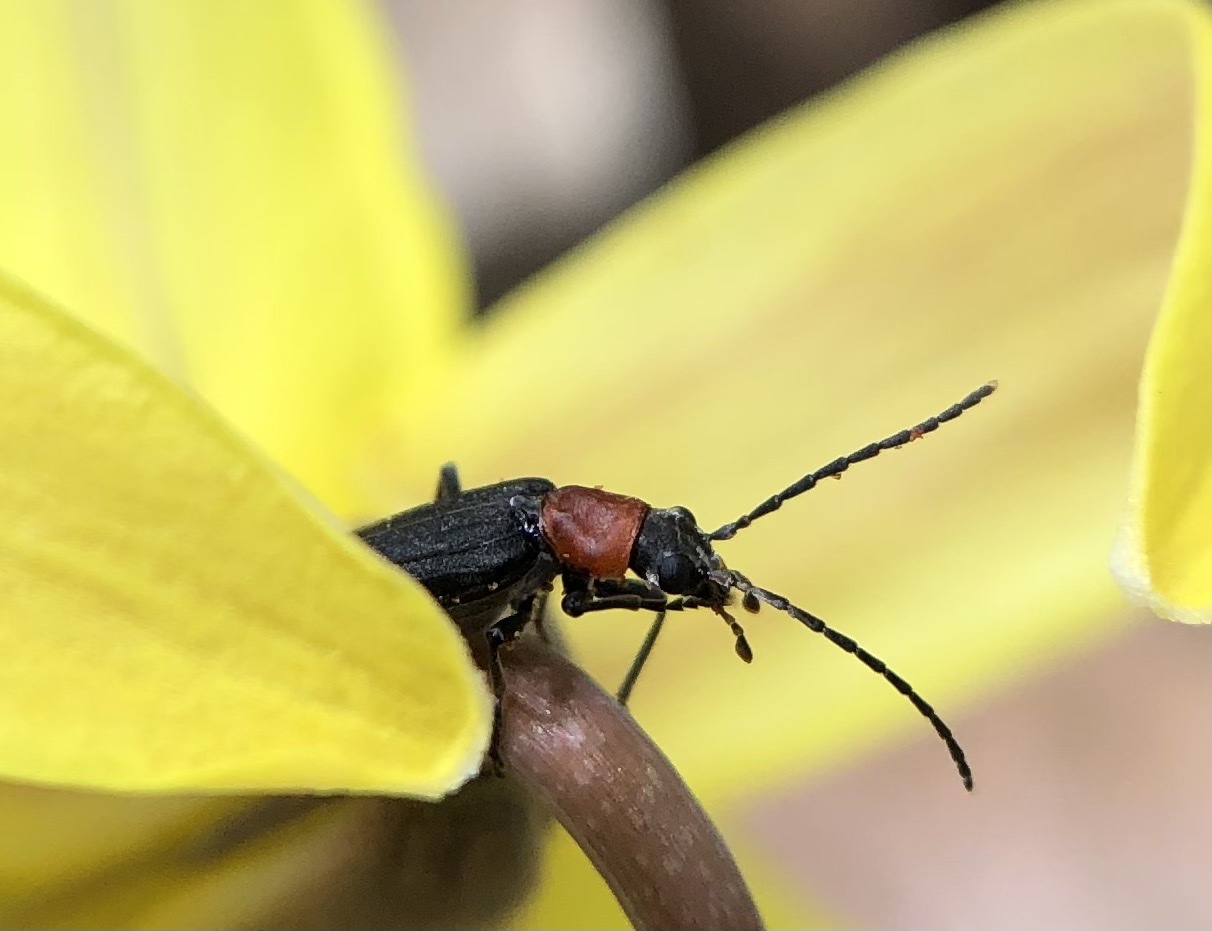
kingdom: Animalia
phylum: Arthropoda
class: Insecta
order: Coleoptera
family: Oedemeridae
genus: Ischnomera
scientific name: Ischnomera
